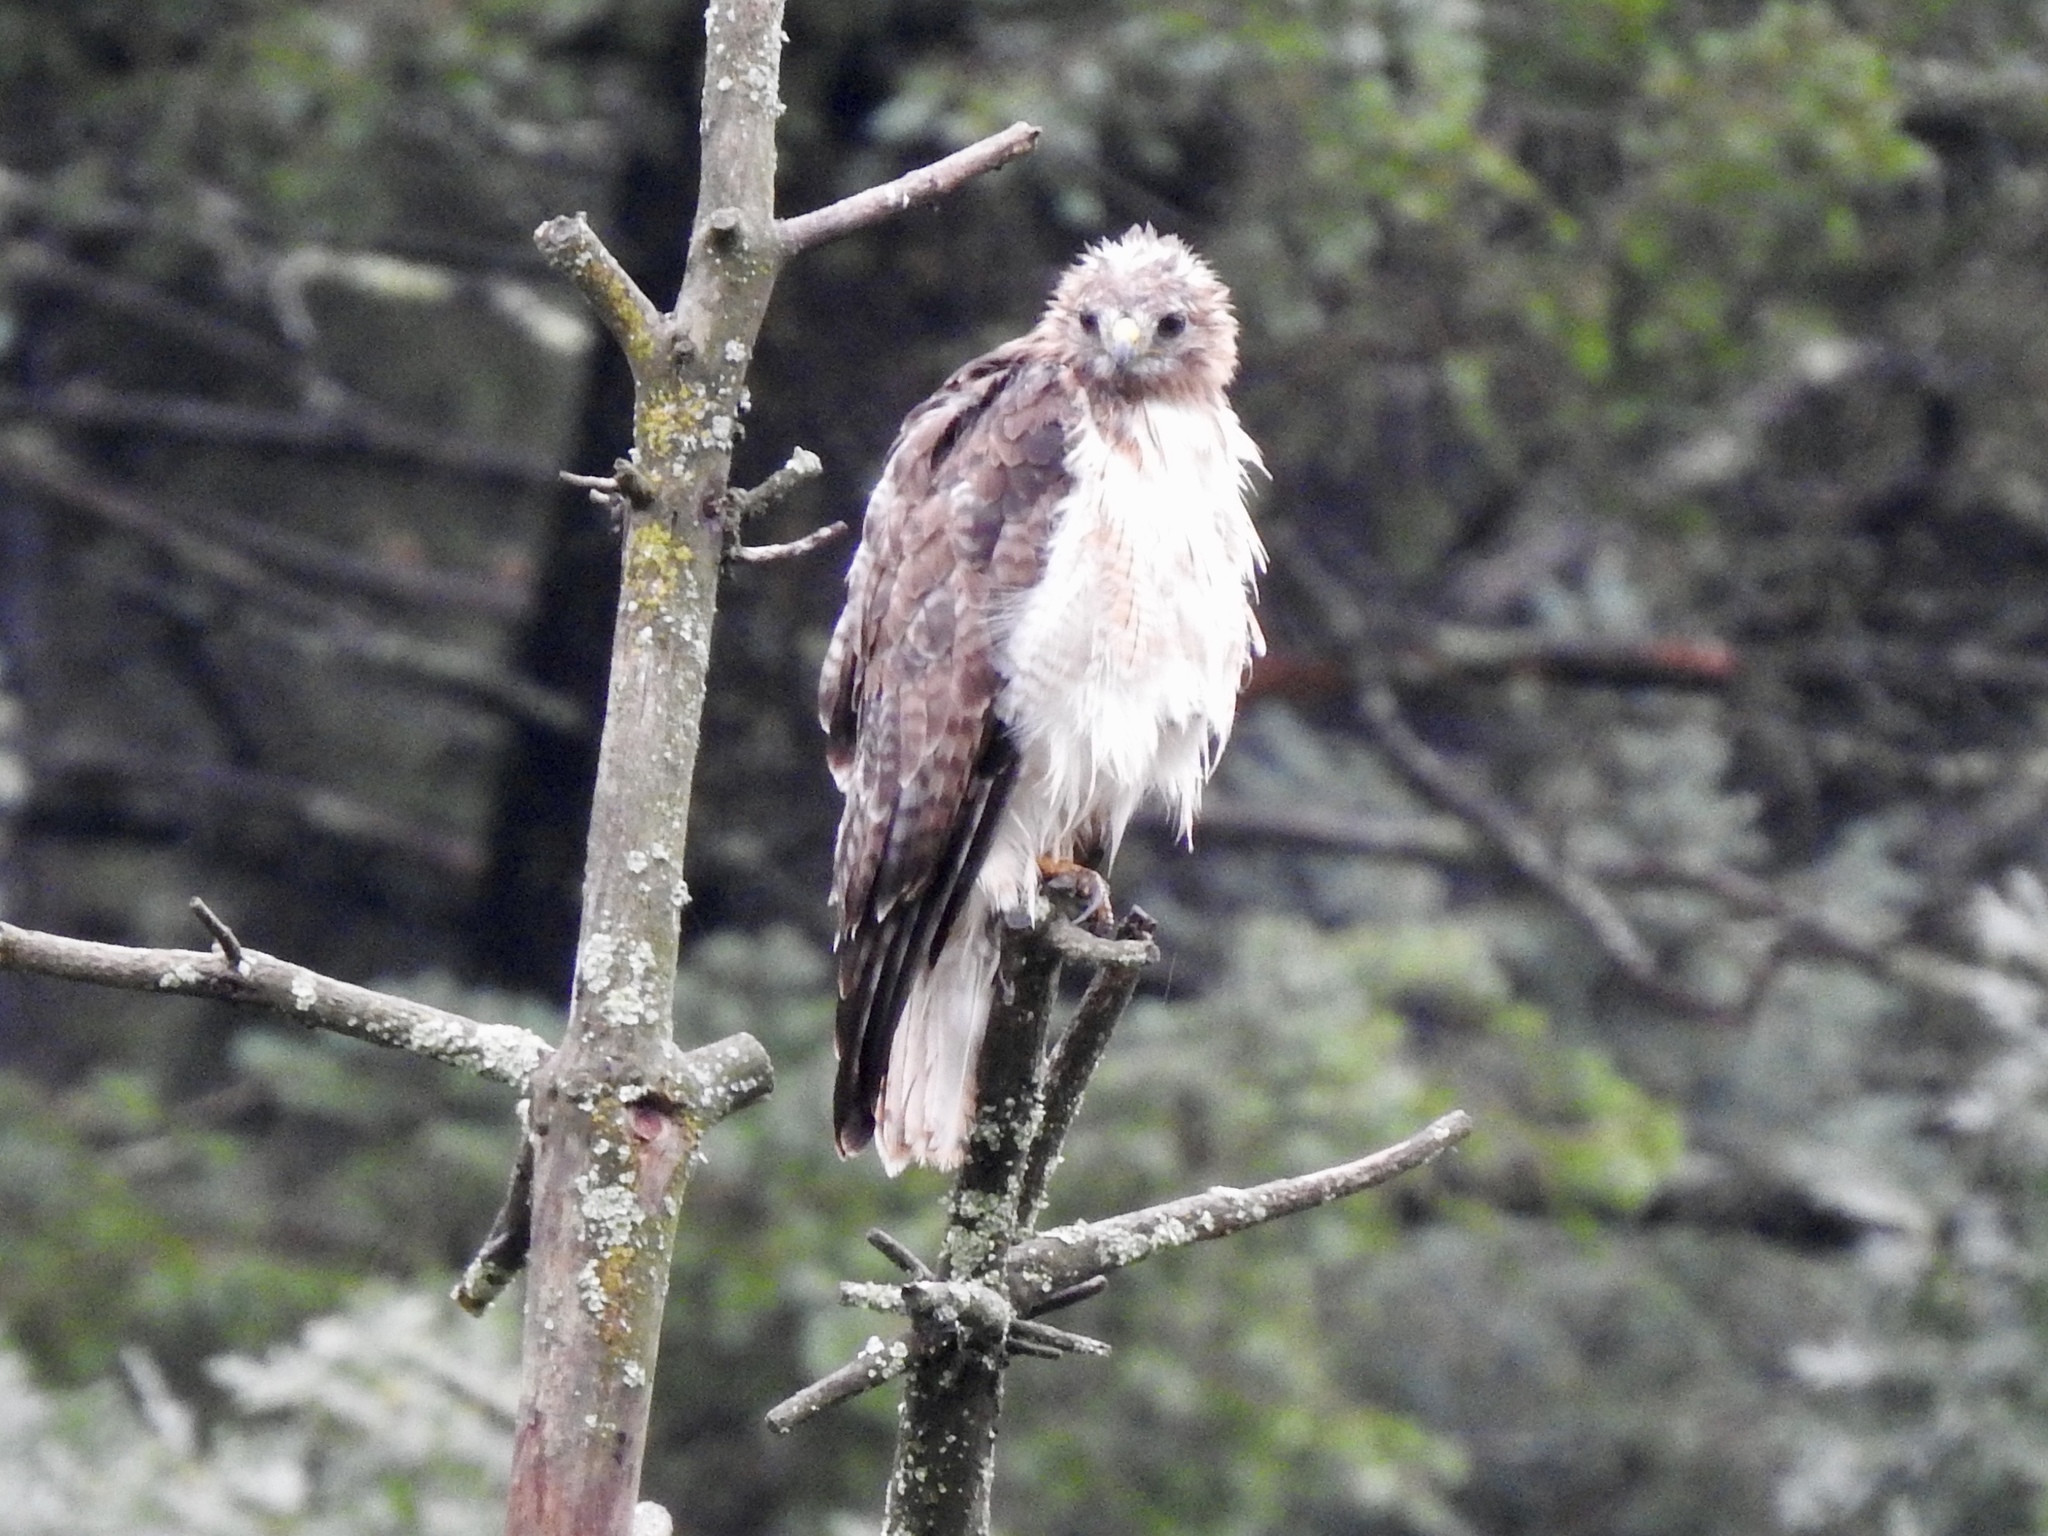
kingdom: Animalia
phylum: Chordata
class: Aves
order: Accipitriformes
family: Accipitridae
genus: Buteo
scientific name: Buteo jamaicensis
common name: Red-tailed hawk
